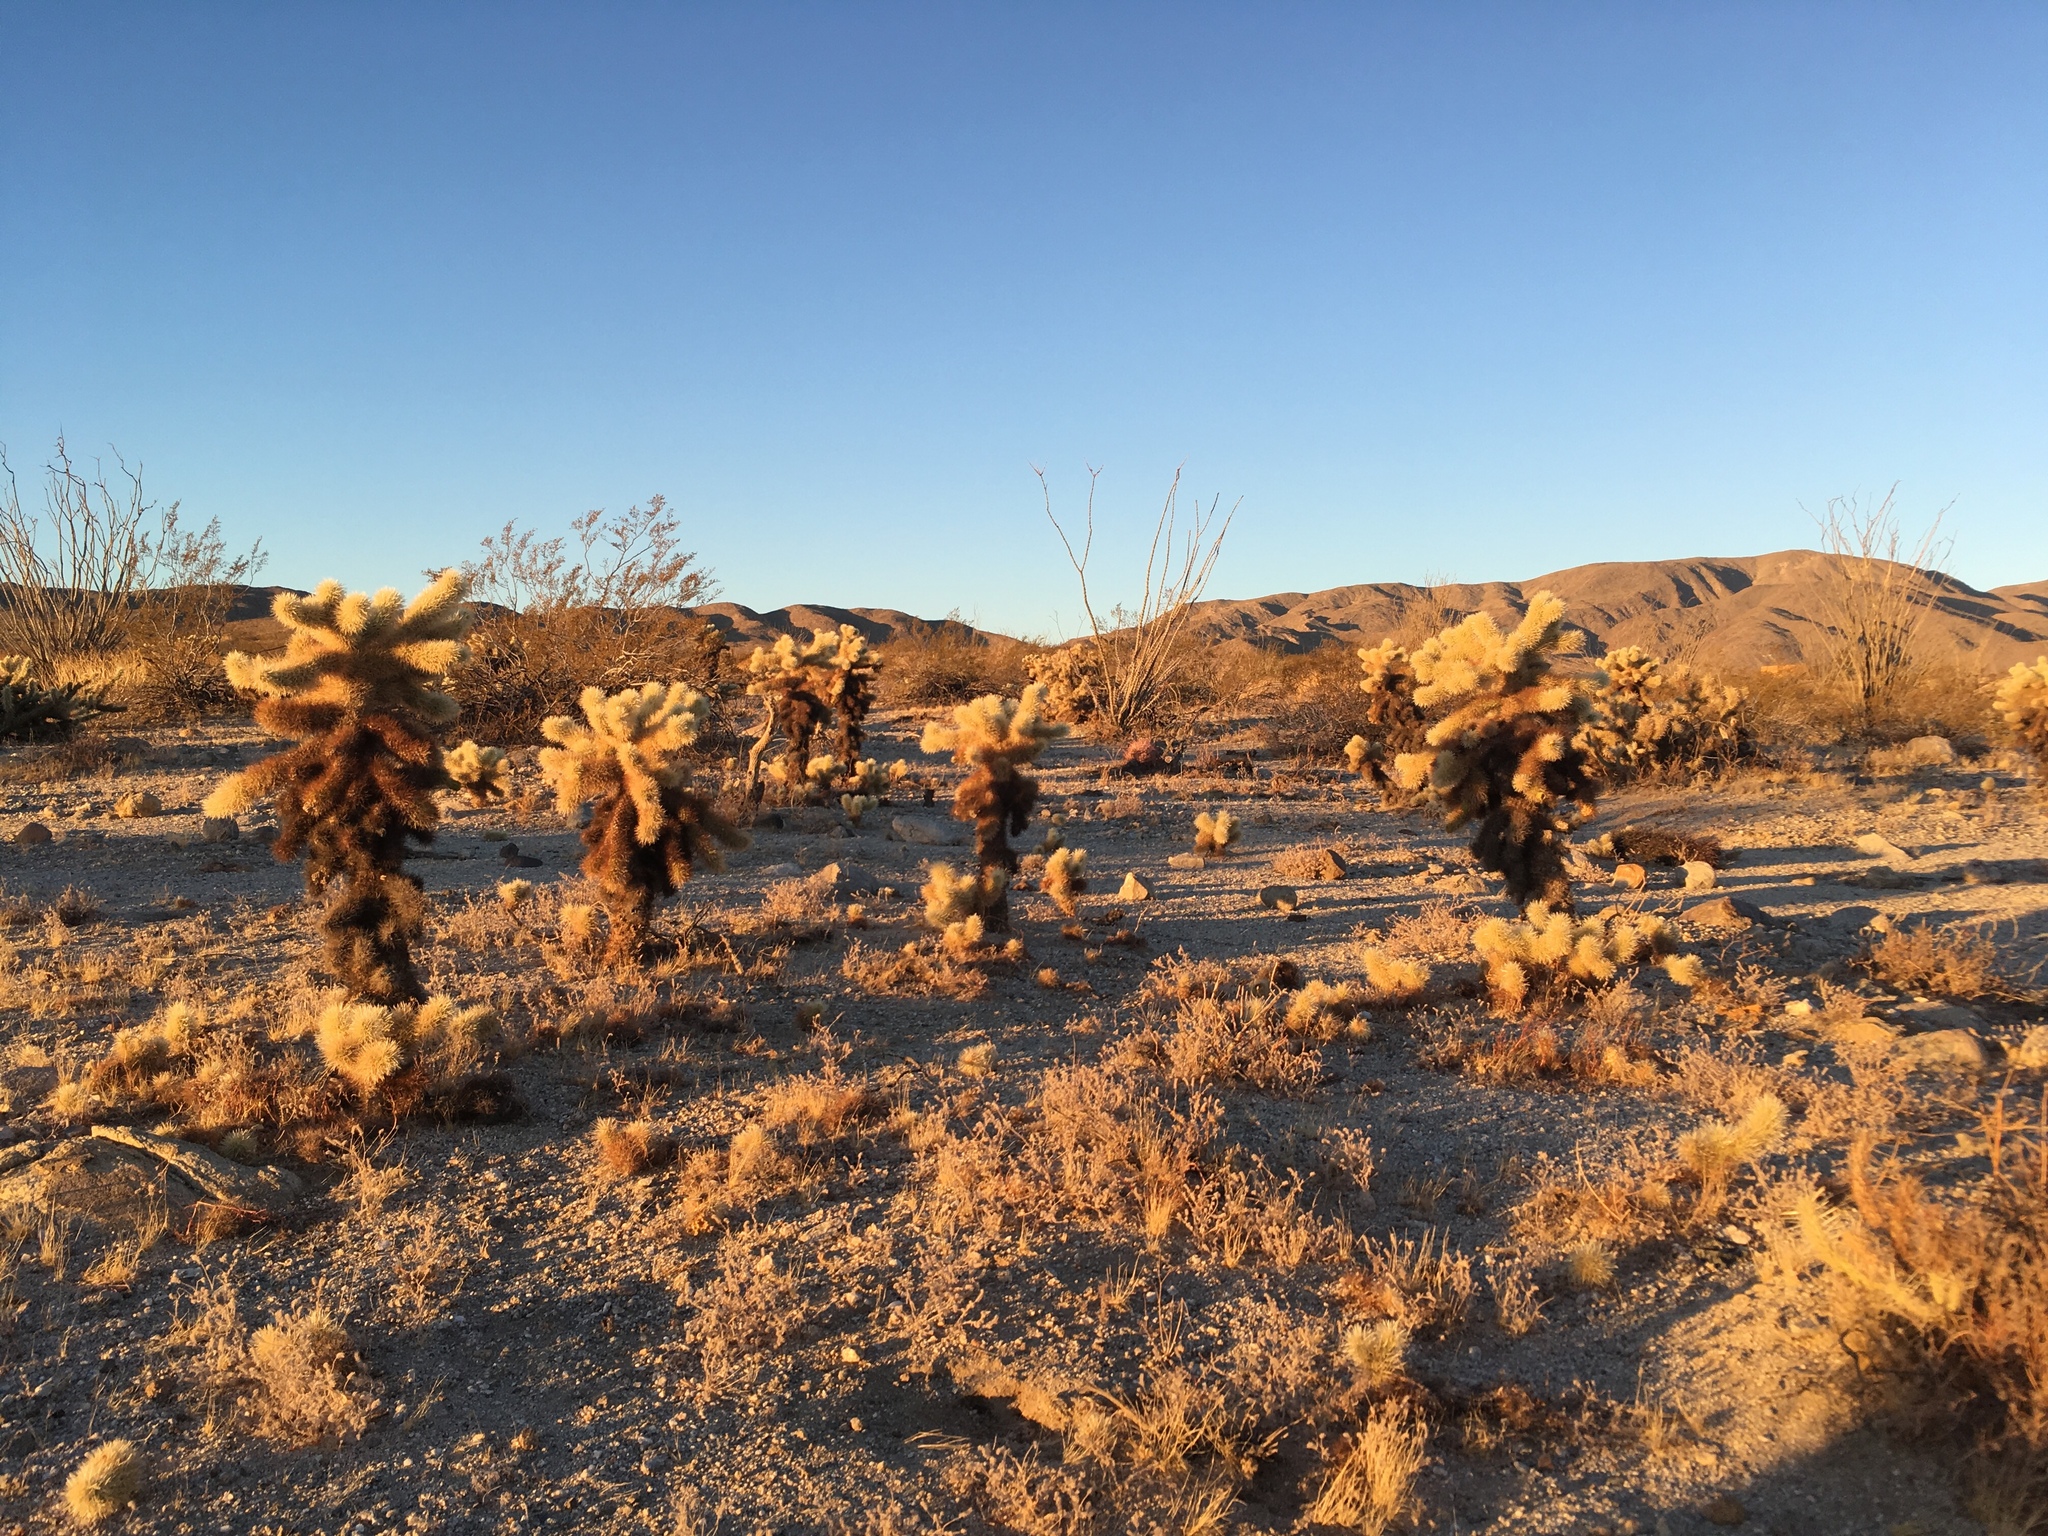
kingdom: Plantae
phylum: Tracheophyta
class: Magnoliopsida
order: Caryophyllales
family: Cactaceae
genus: Cylindropuntia
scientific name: Cylindropuntia fosbergii
